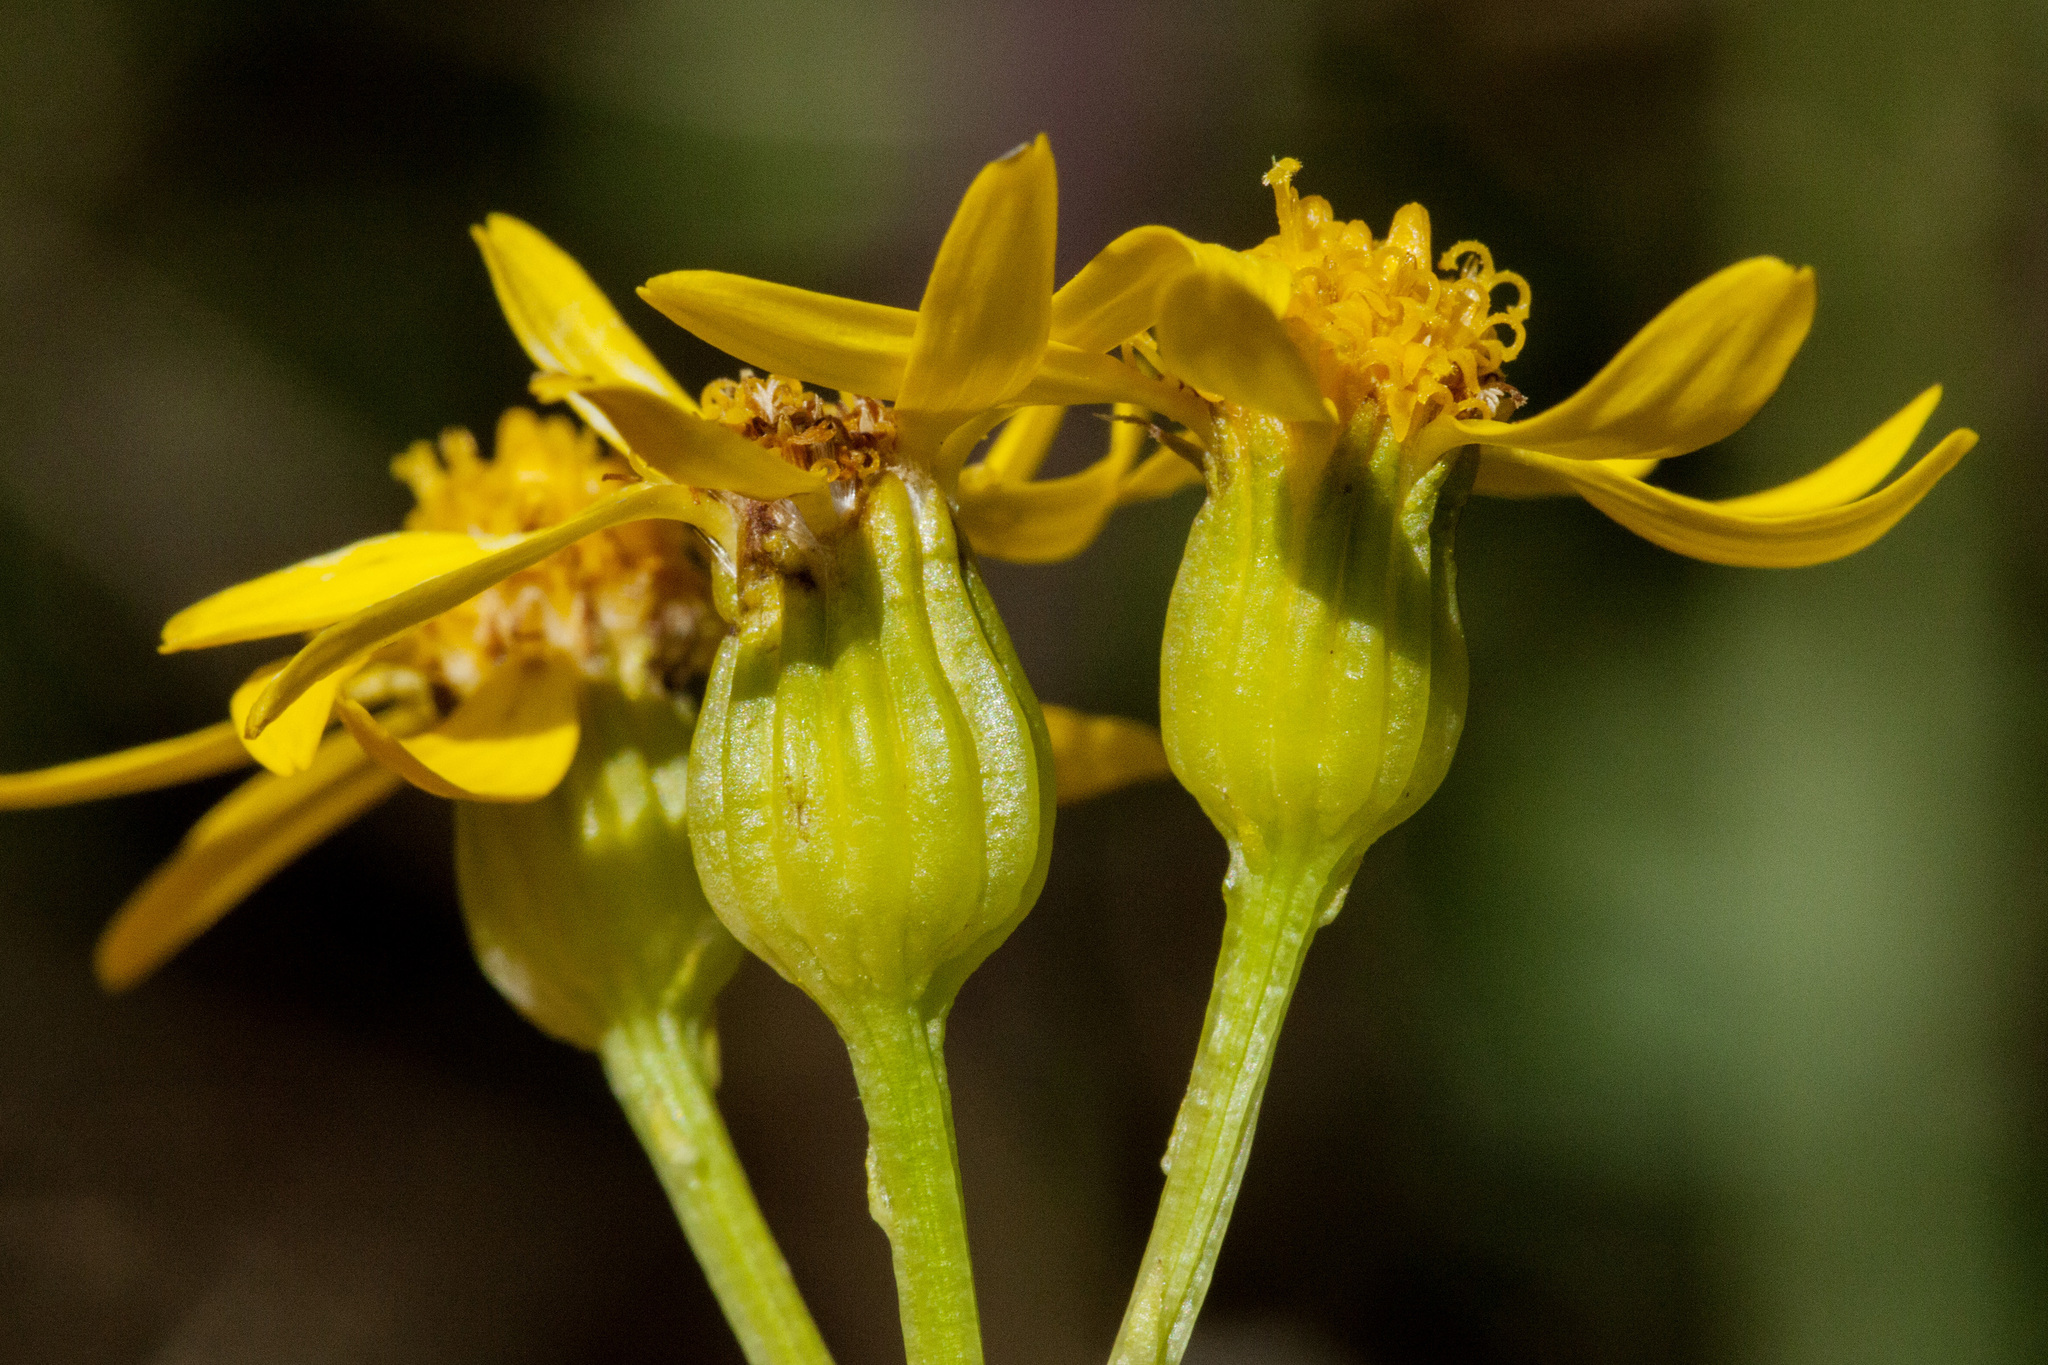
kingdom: Plantae
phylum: Tracheophyta
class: Magnoliopsida
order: Asterales
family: Asteraceae
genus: Packera
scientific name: Packera sanguisorboides
